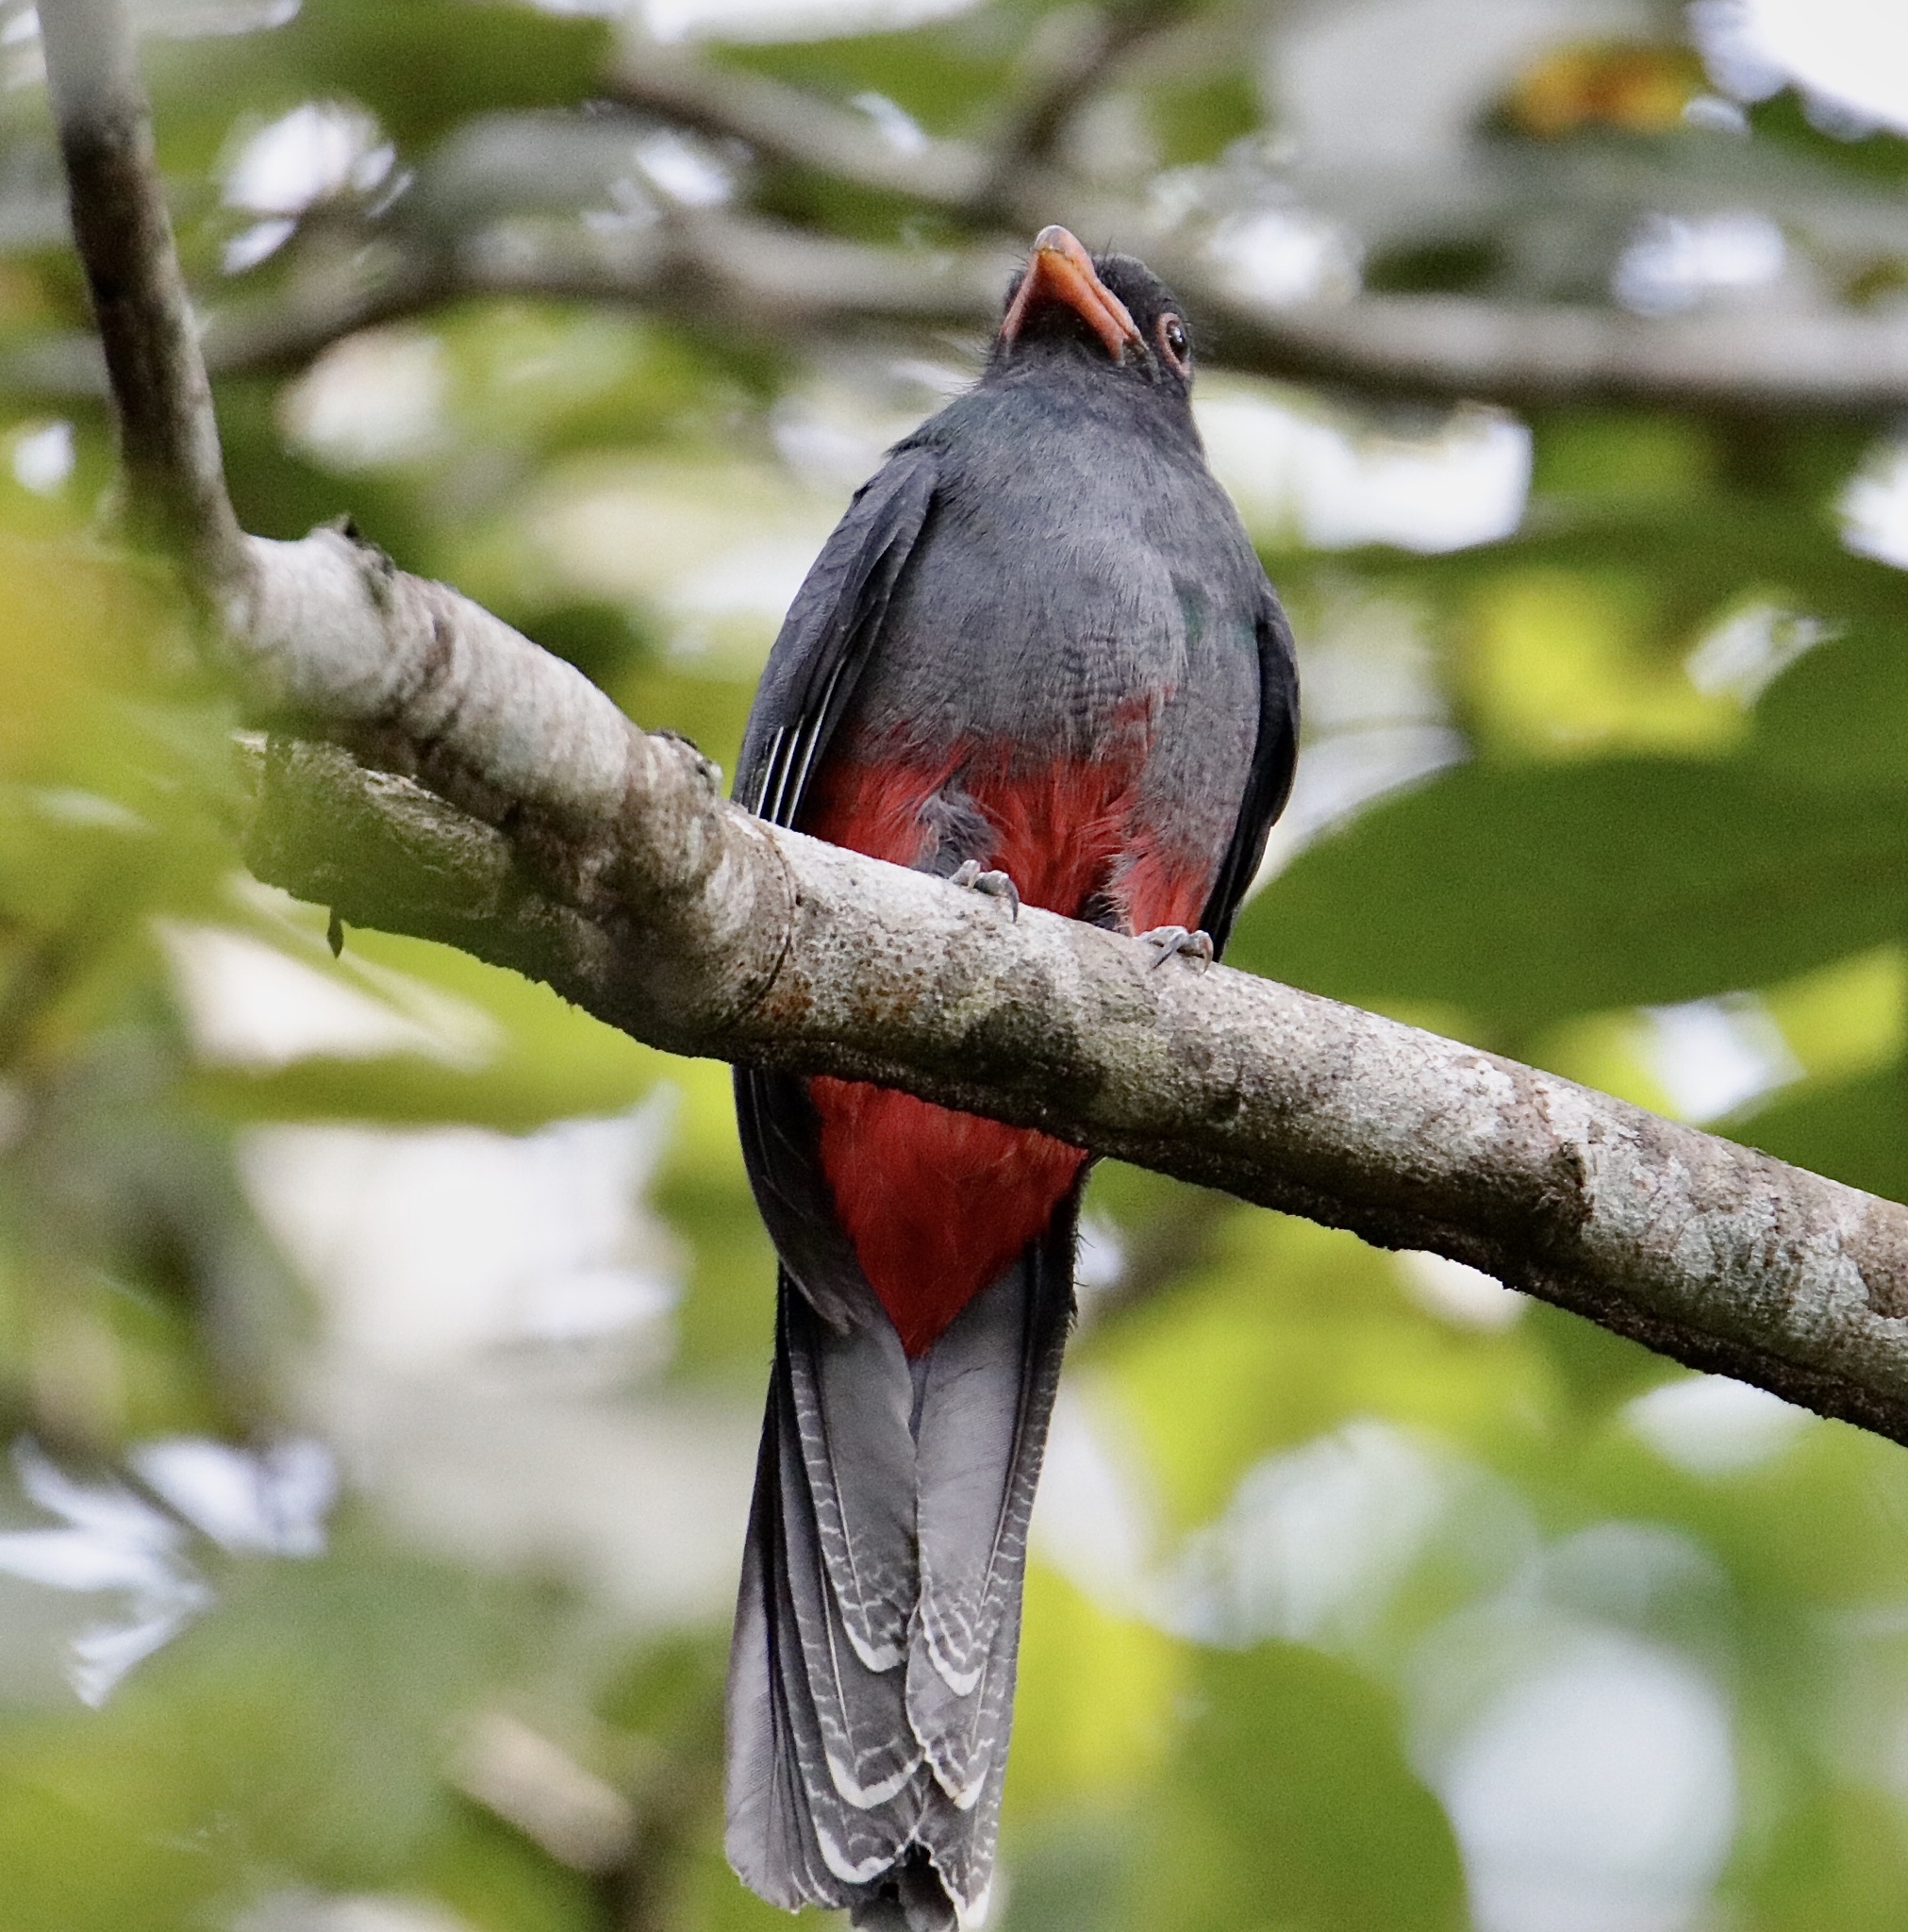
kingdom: Animalia
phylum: Chordata
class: Aves
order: Trogoniformes
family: Trogonidae
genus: Trogon
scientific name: Trogon massena
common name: Slaty-tailed trogon
